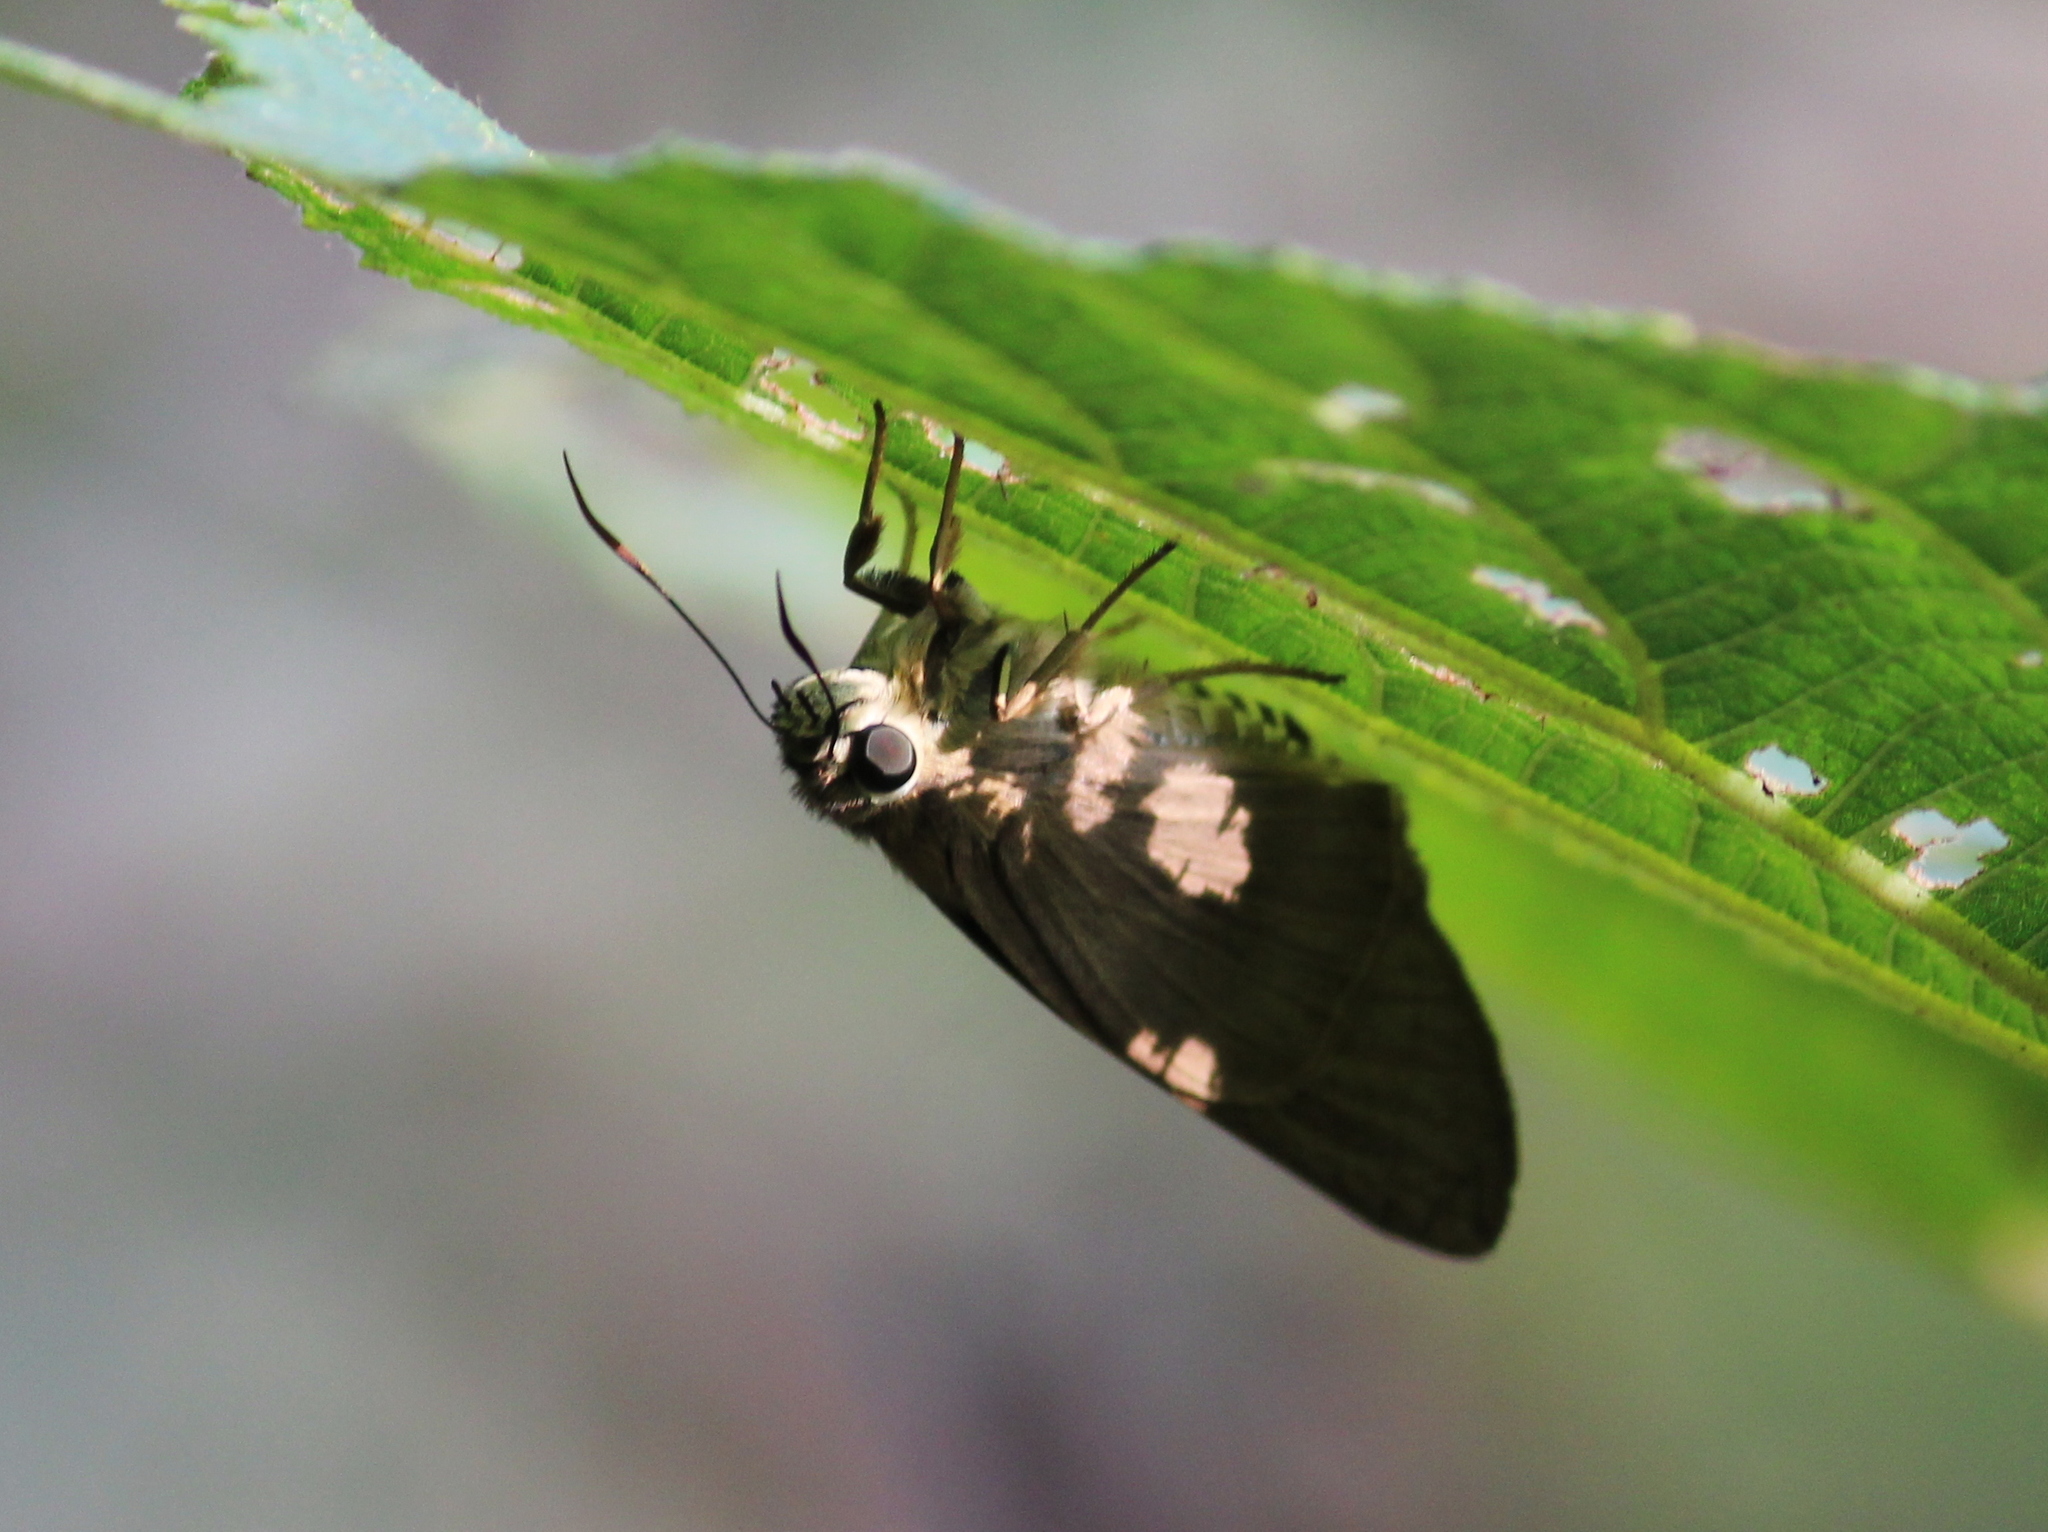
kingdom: Animalia
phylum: Arthropoda
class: Insecta
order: Lepidoptera
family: Hesperiidae
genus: Badamia
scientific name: Badamia exclamationis
